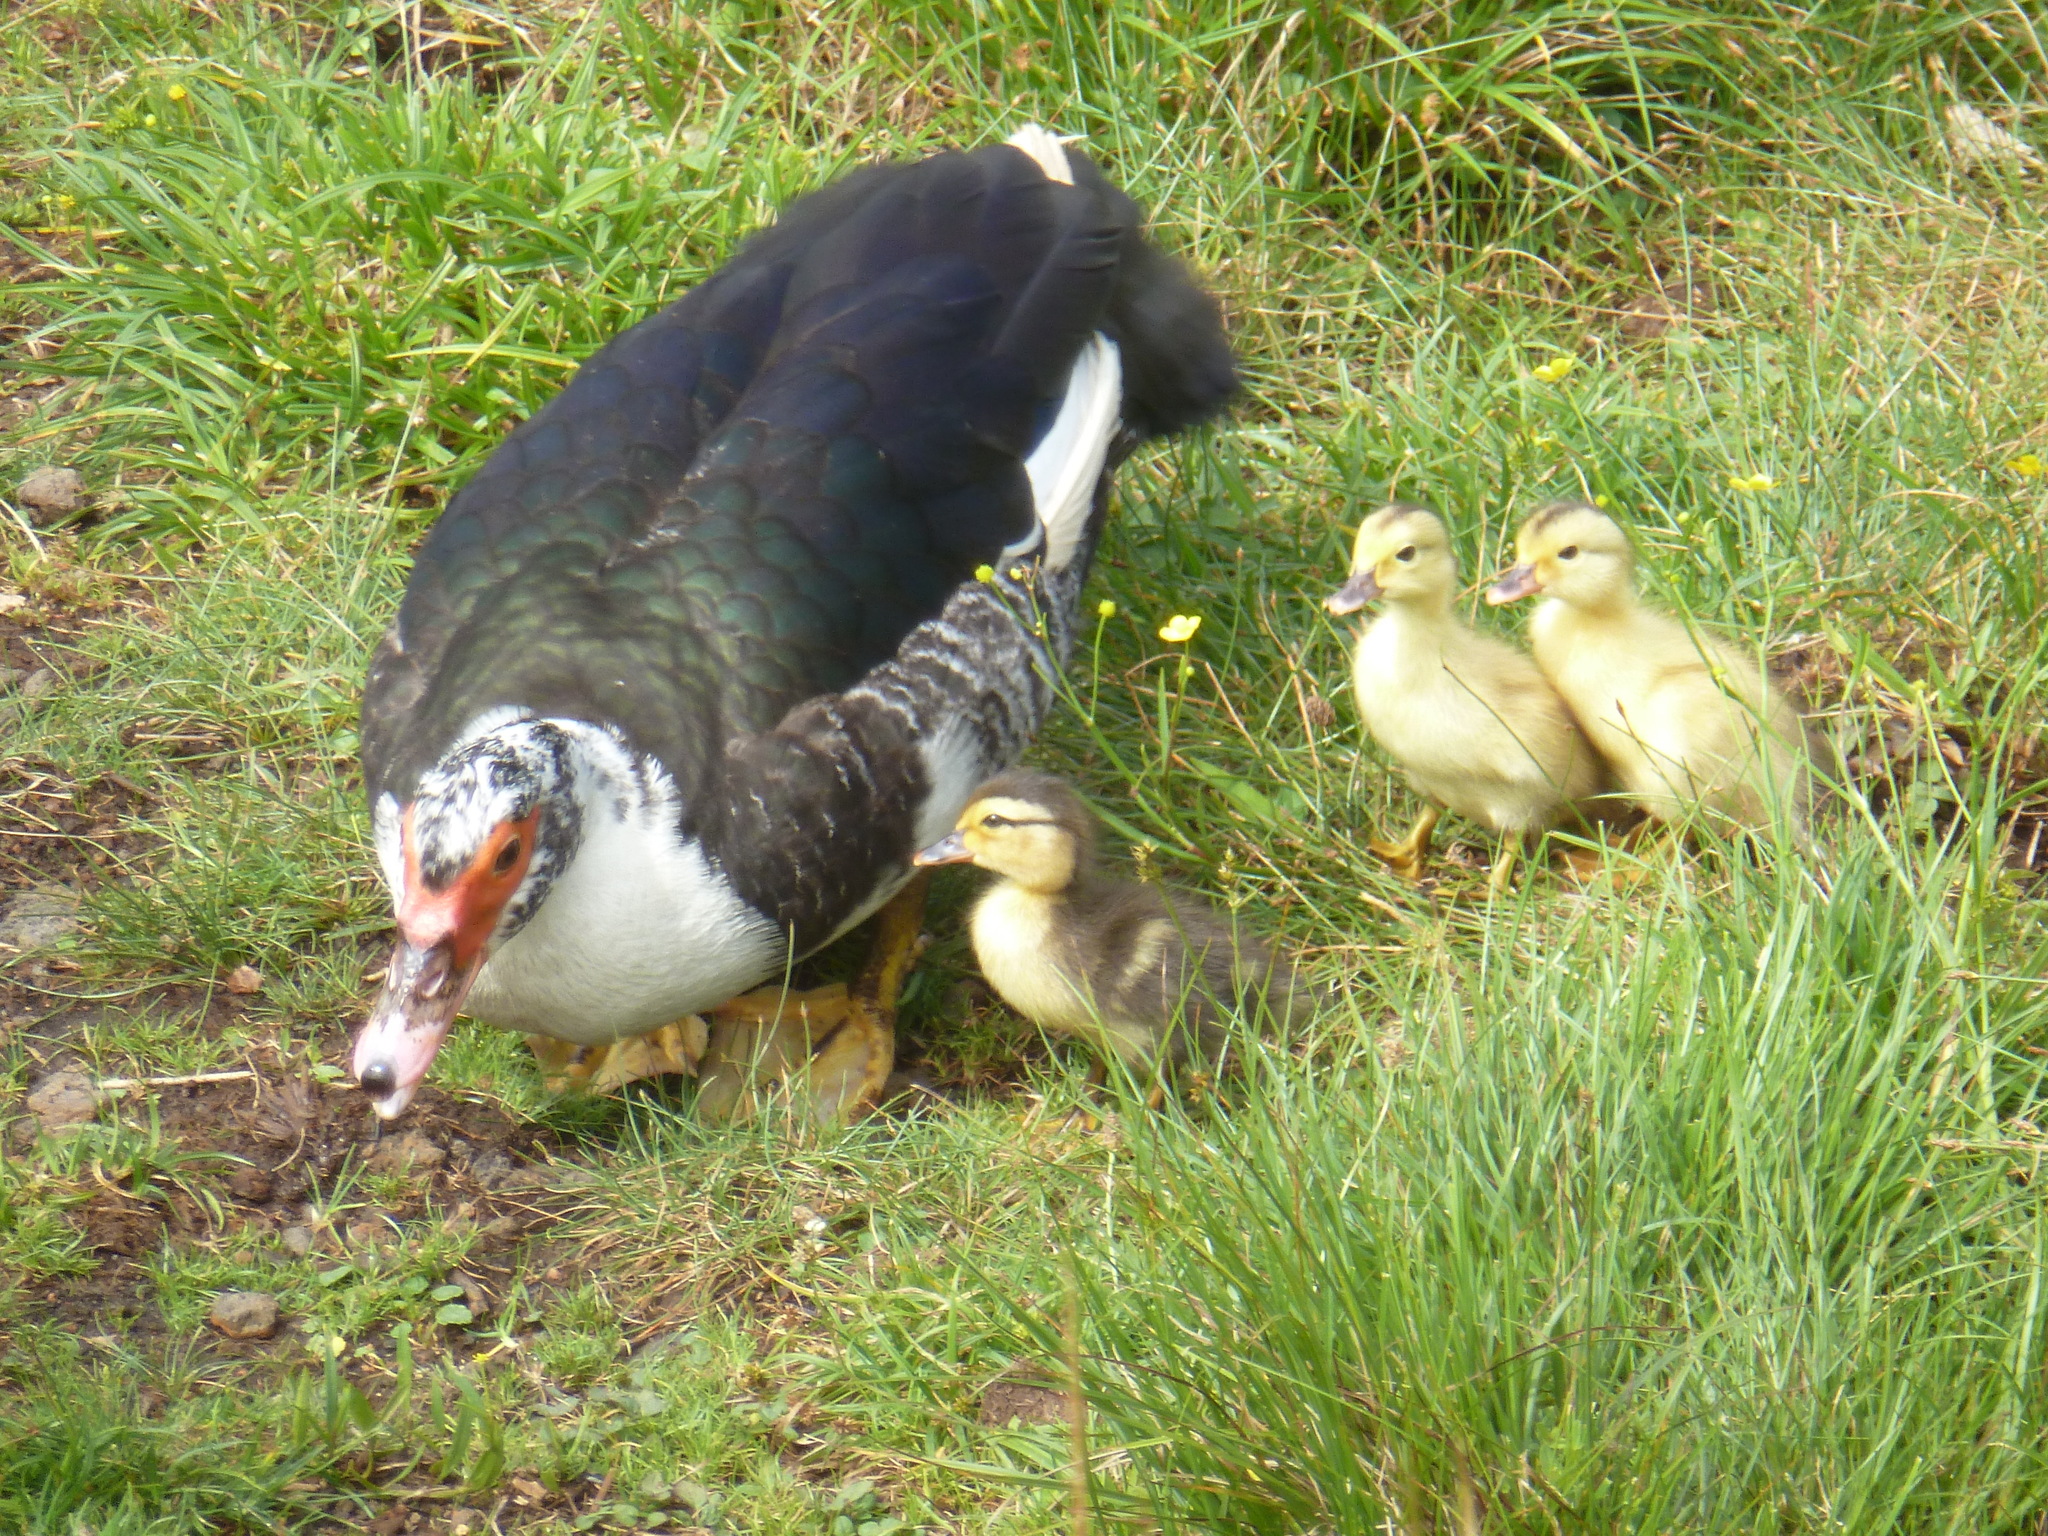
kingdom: Animalia
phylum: Chordata
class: Aves
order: Anseriformes
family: Anatidae
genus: Cairina
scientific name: Cairina moschata
